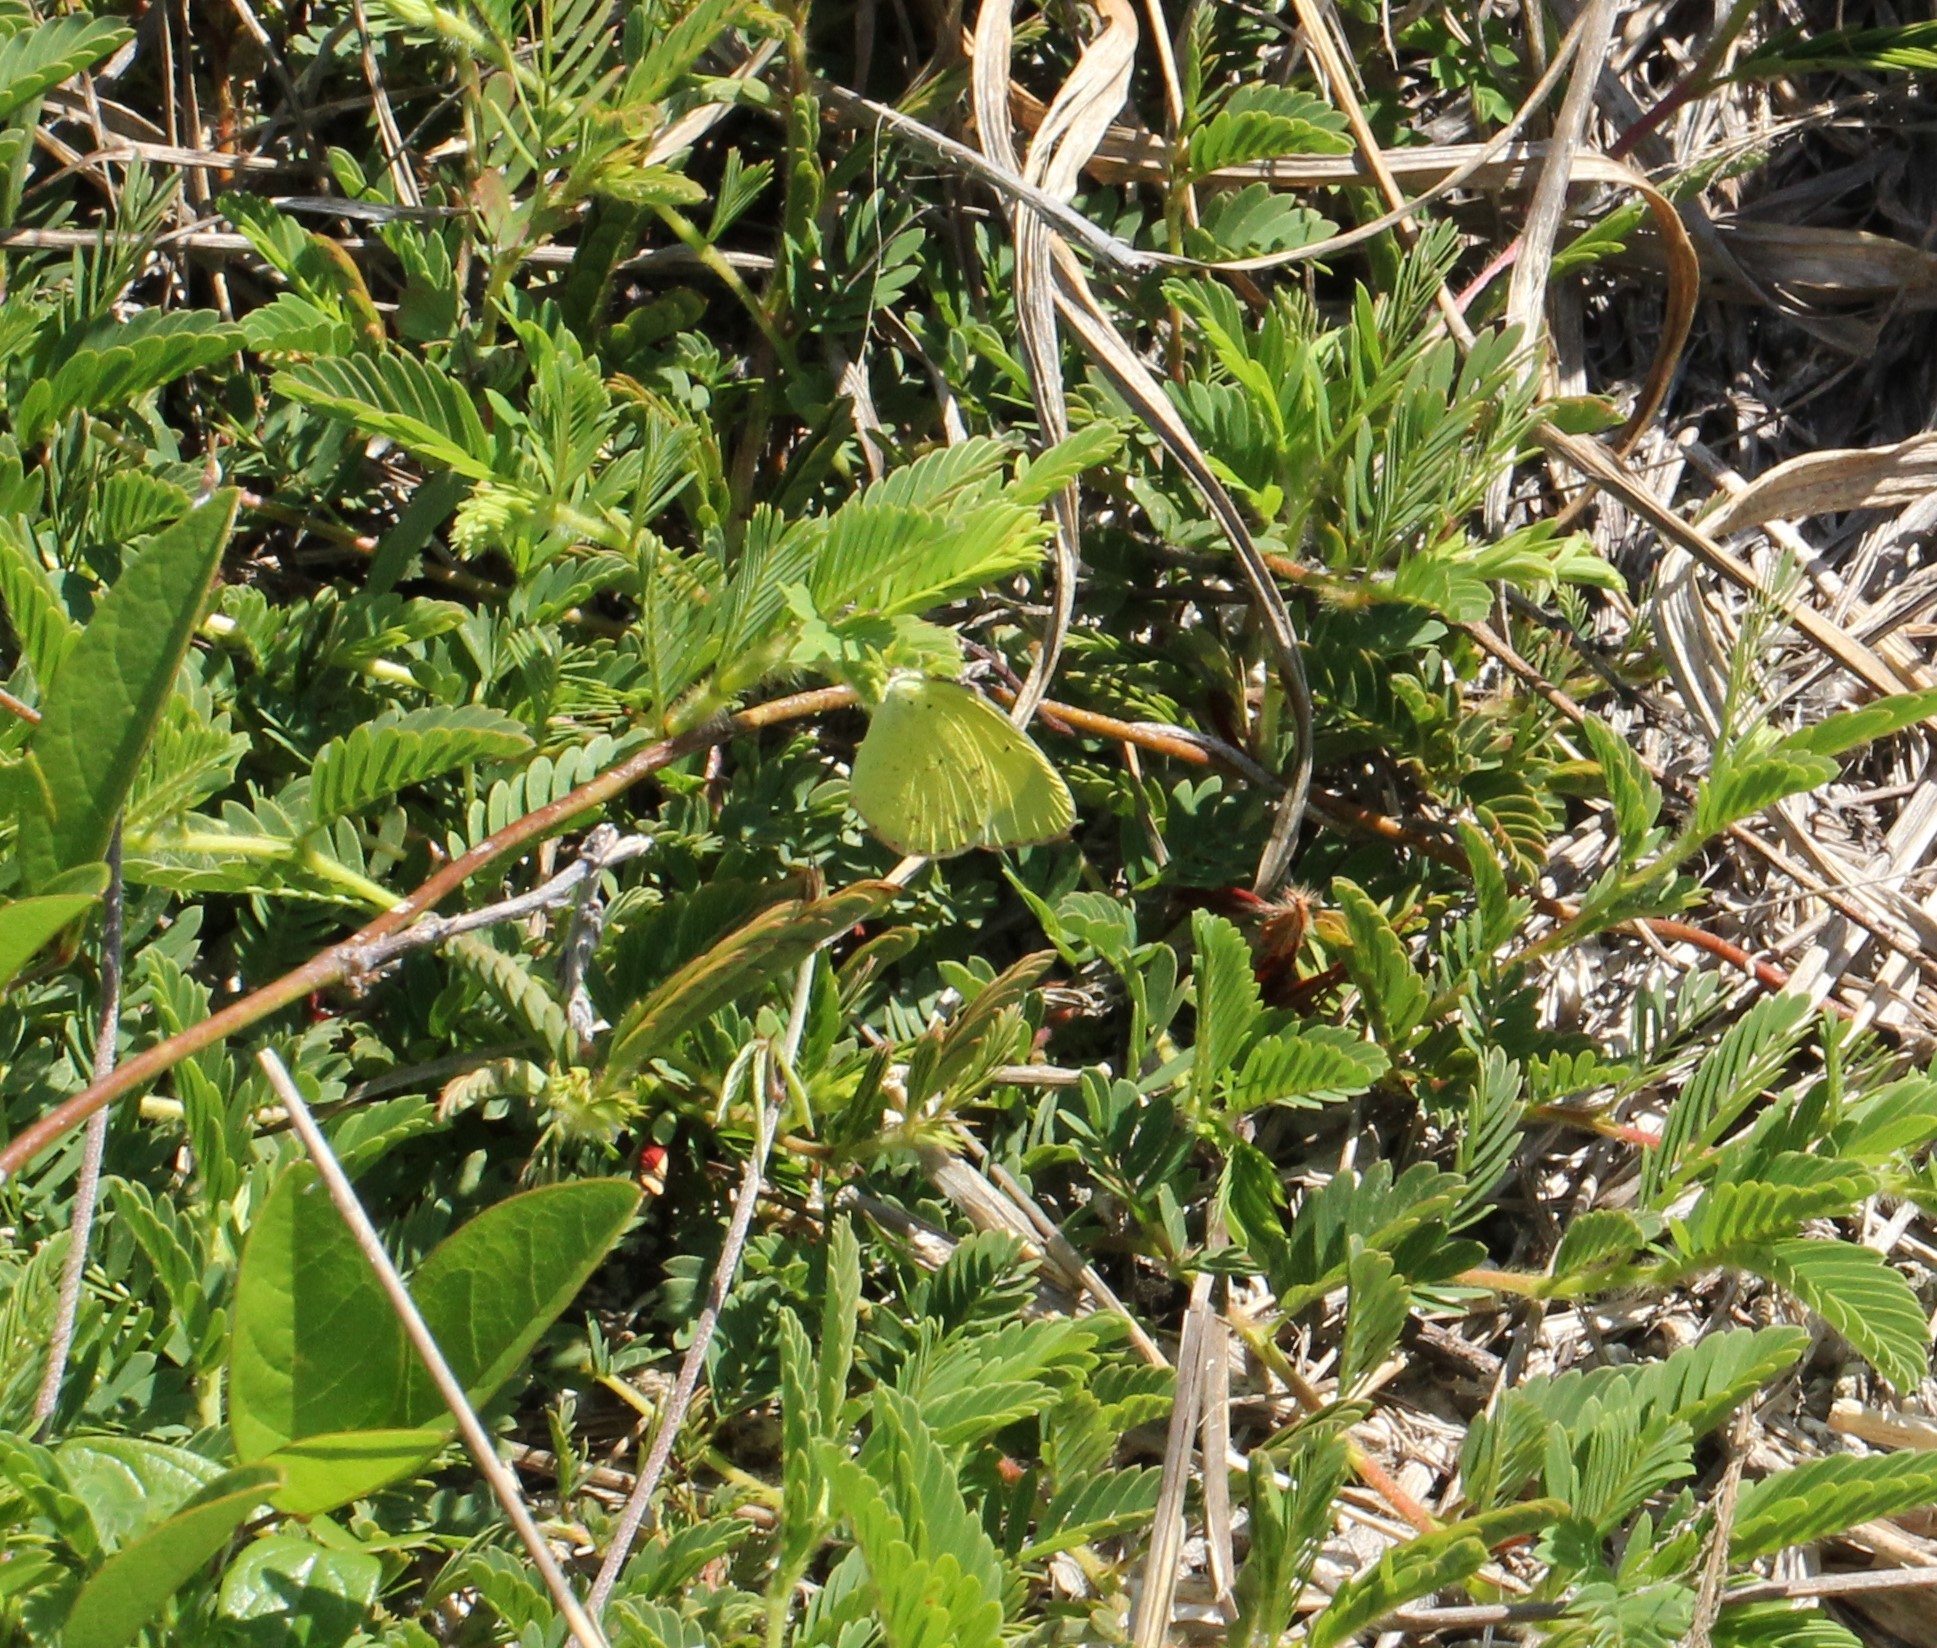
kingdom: Animalia
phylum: Arthropoda
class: Insecta
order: Lepidoptera
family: Pieridae
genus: Pyrisitia
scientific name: Pyrisitia lisa
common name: Little yellow
